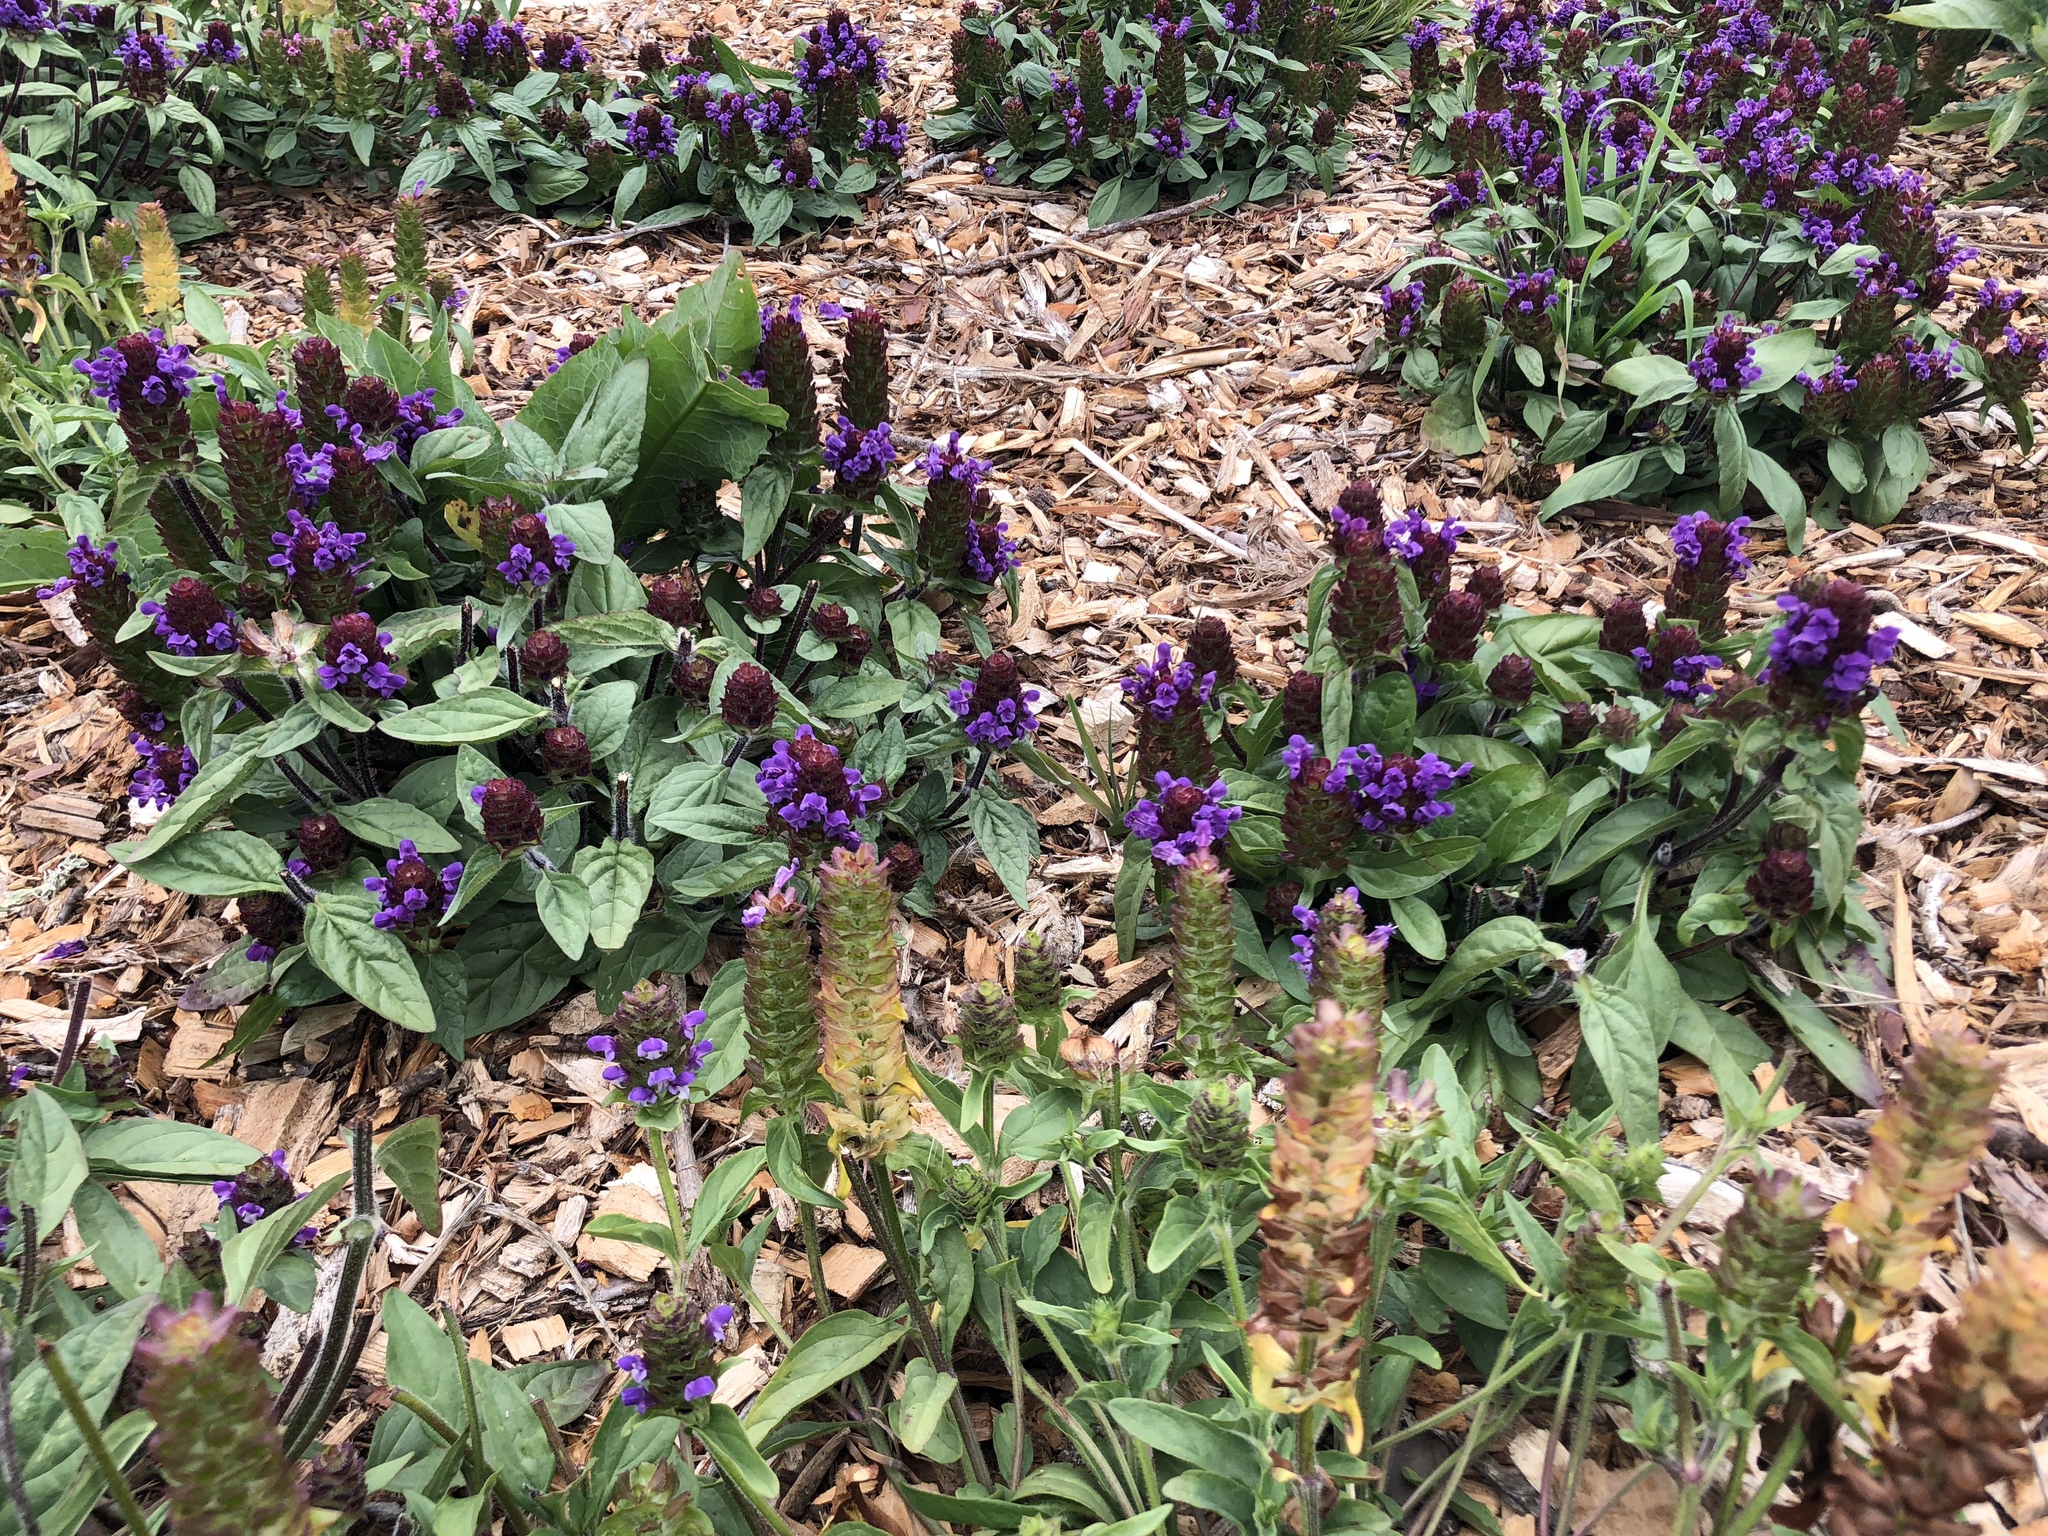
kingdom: Plantae
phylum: Tracheophyta
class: Magnoliopsida
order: Lamiales
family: Lamiaceae
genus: Prunella
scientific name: Prunella vulgaris
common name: Heal-all
